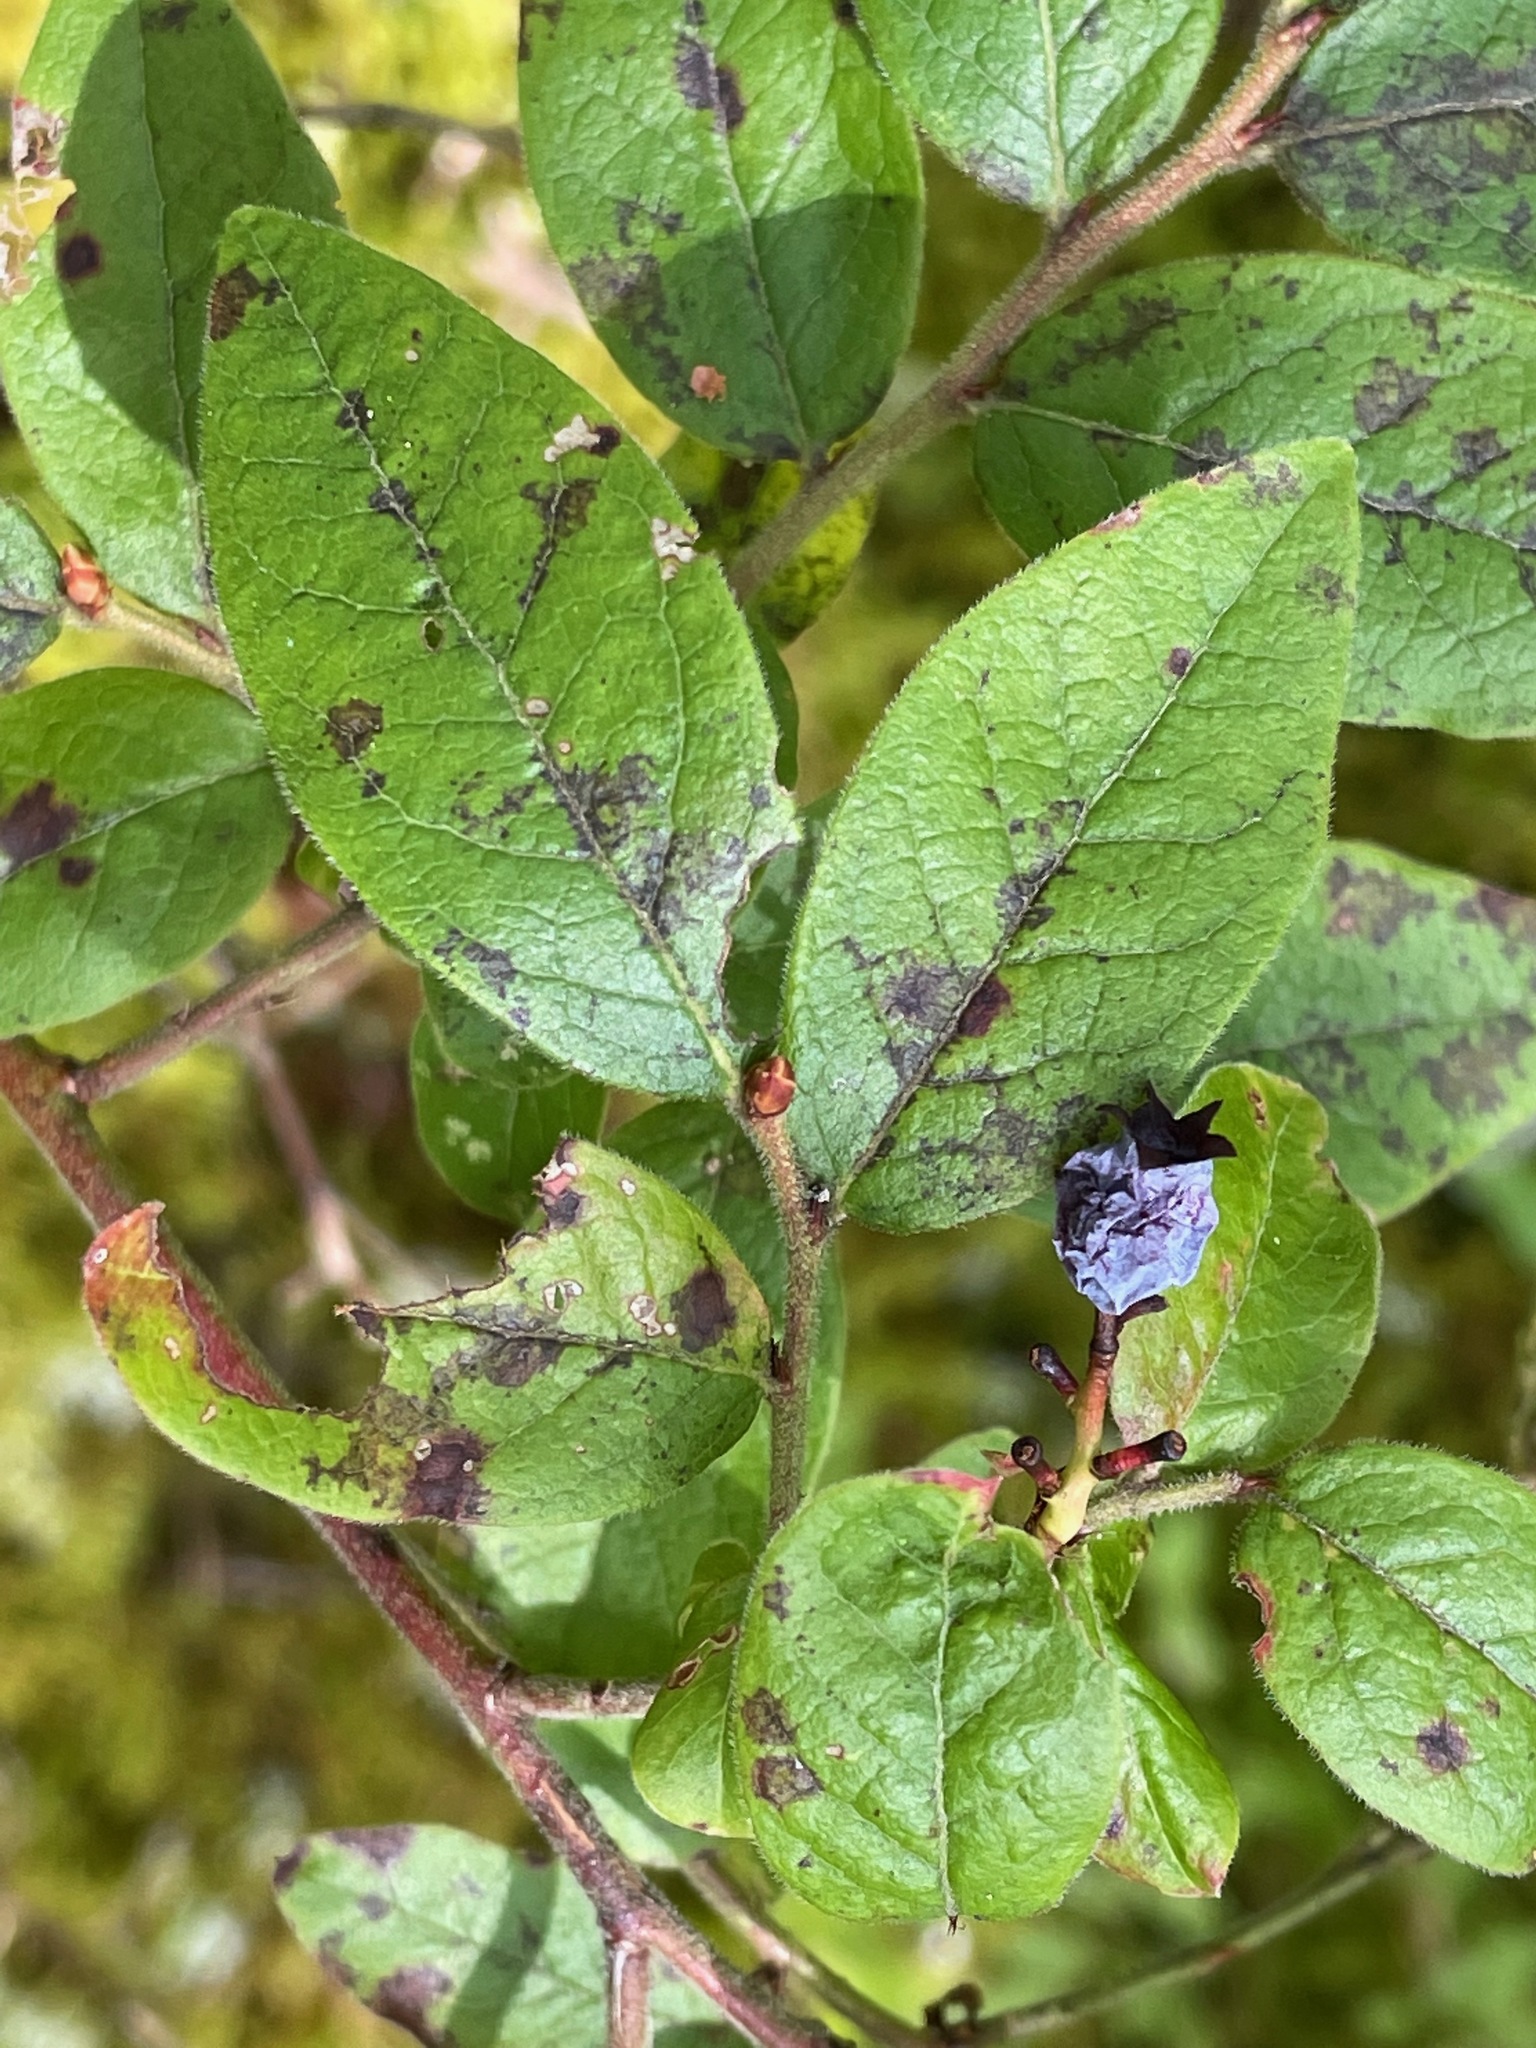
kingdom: Plantae
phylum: Tracheophyta
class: Magnoliopsida
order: Ericales
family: Ericaceae
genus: Vaccinium
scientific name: Vaccinium myrtilloides
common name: Canada blueberry
